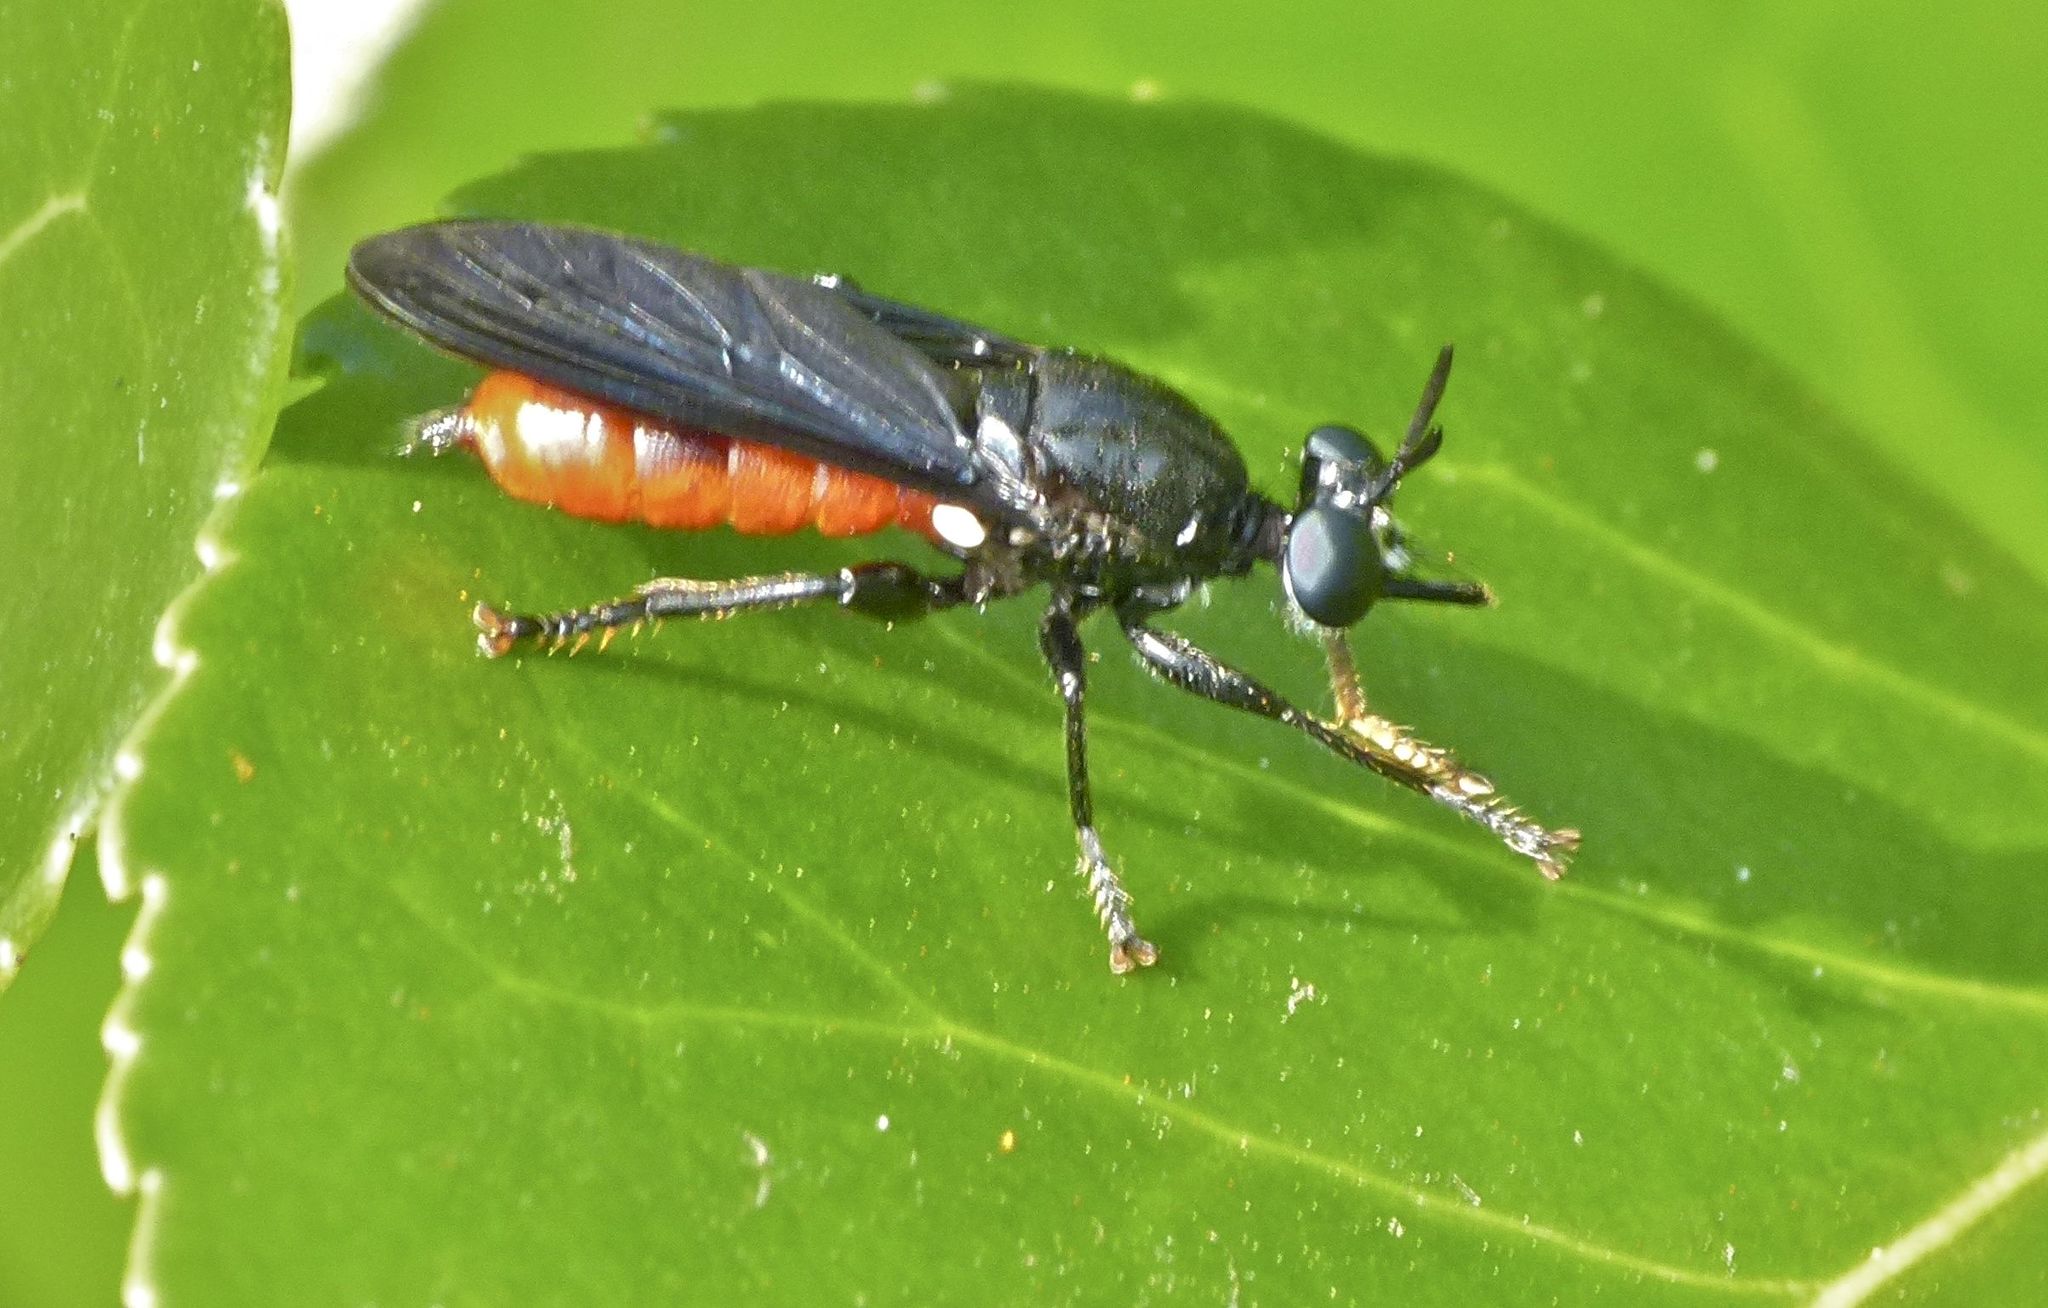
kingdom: Animalia
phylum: Arthropoda
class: Insecta
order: Diptera
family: Asilidae
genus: Lampria
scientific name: Lampria bicolor
